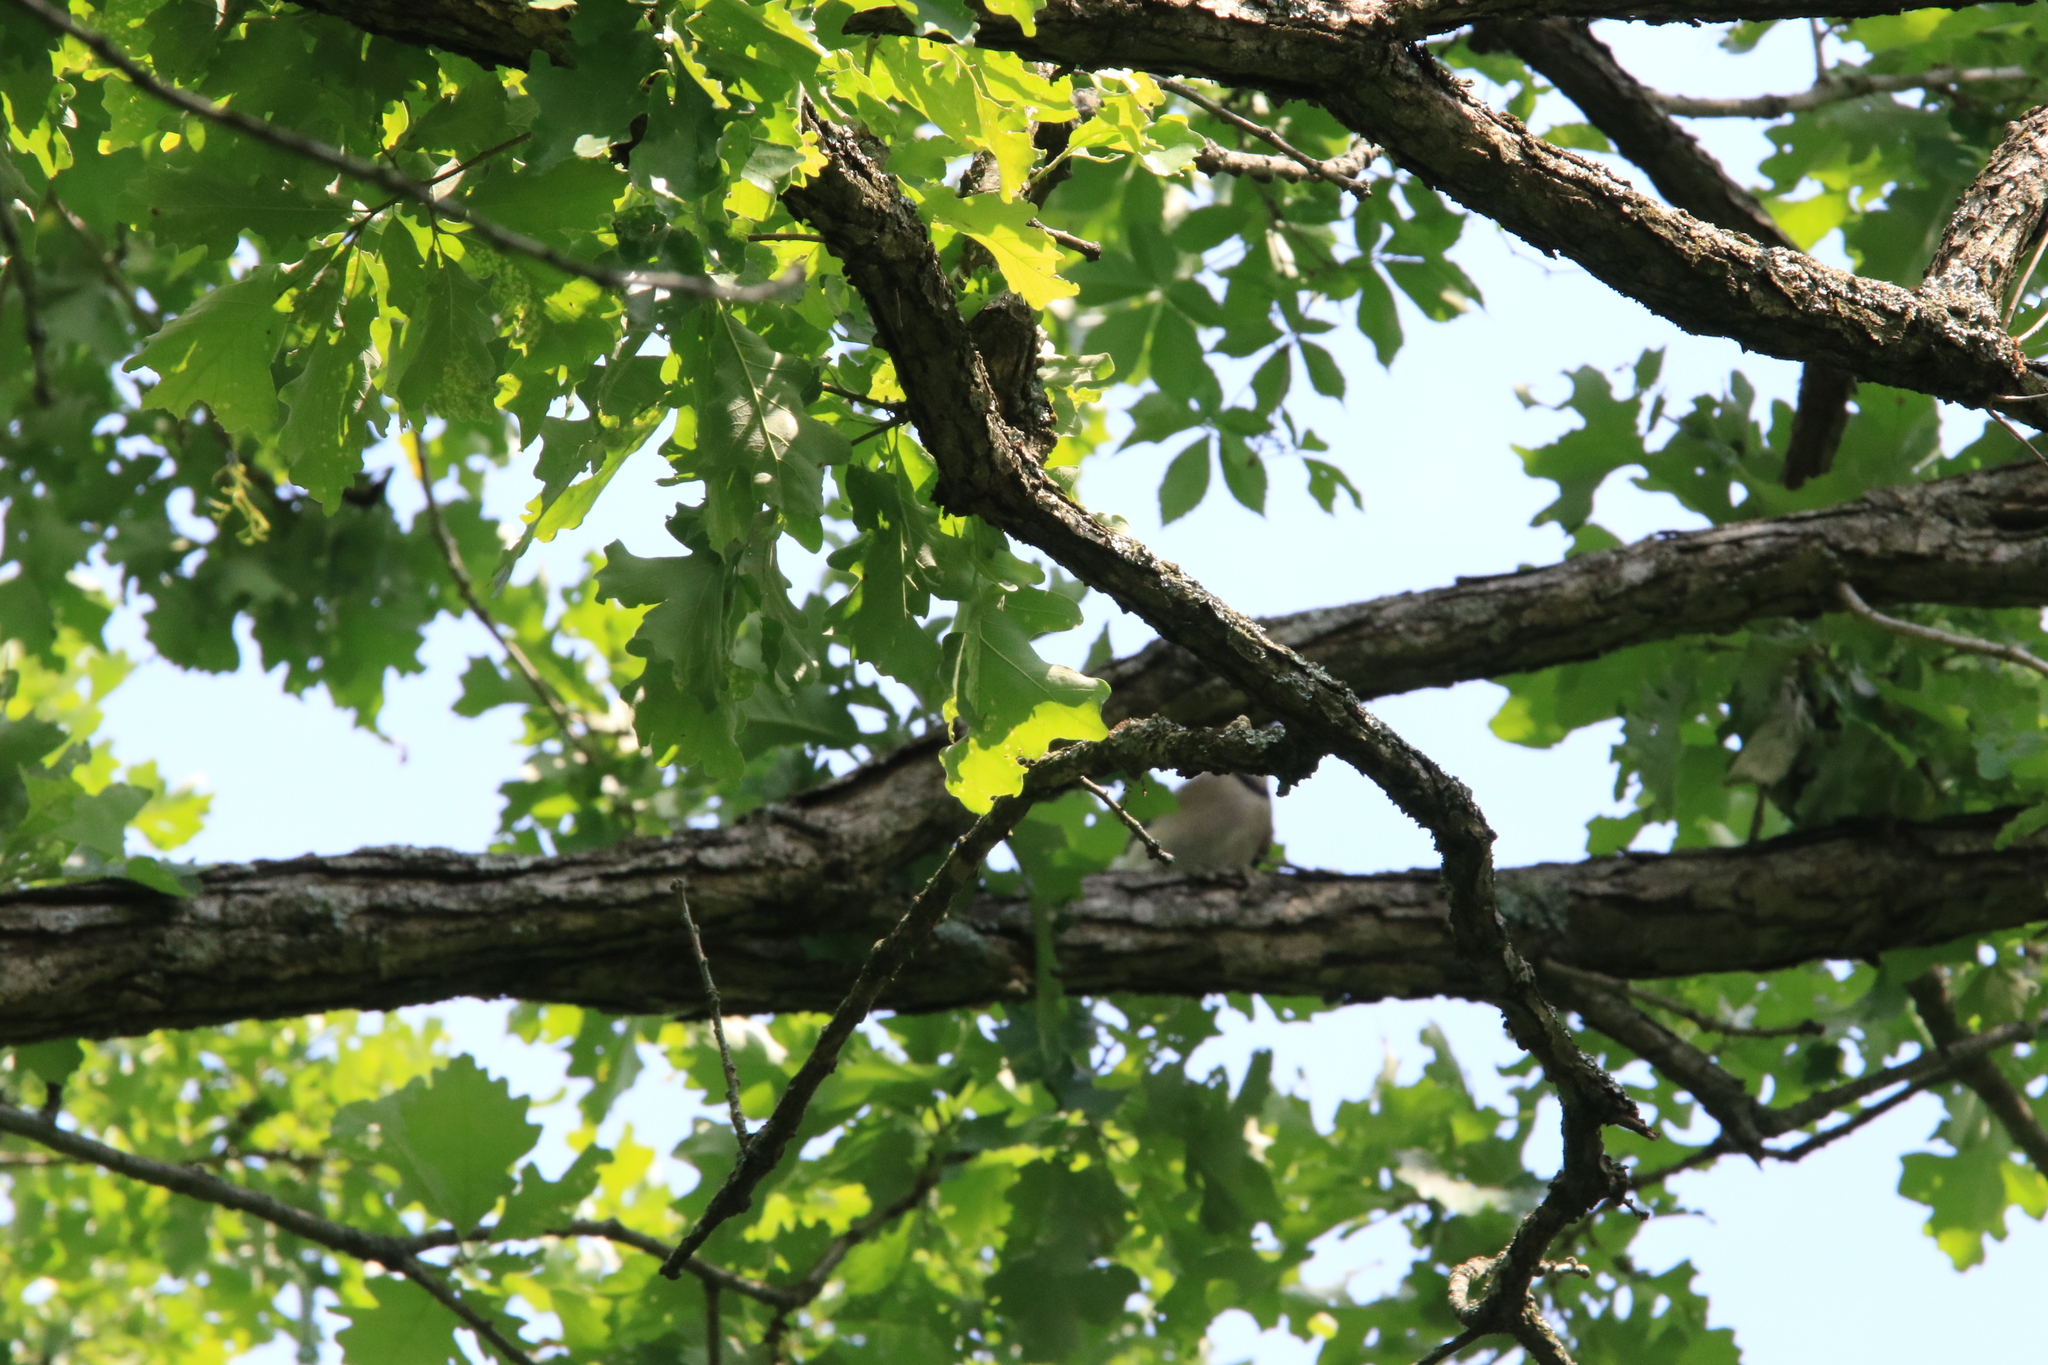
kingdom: Animalia
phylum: Chordata
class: Aves
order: Passeriformes
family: Corvidae
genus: Cyanocitta
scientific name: Cyanocitta cristata
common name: Blue jay
